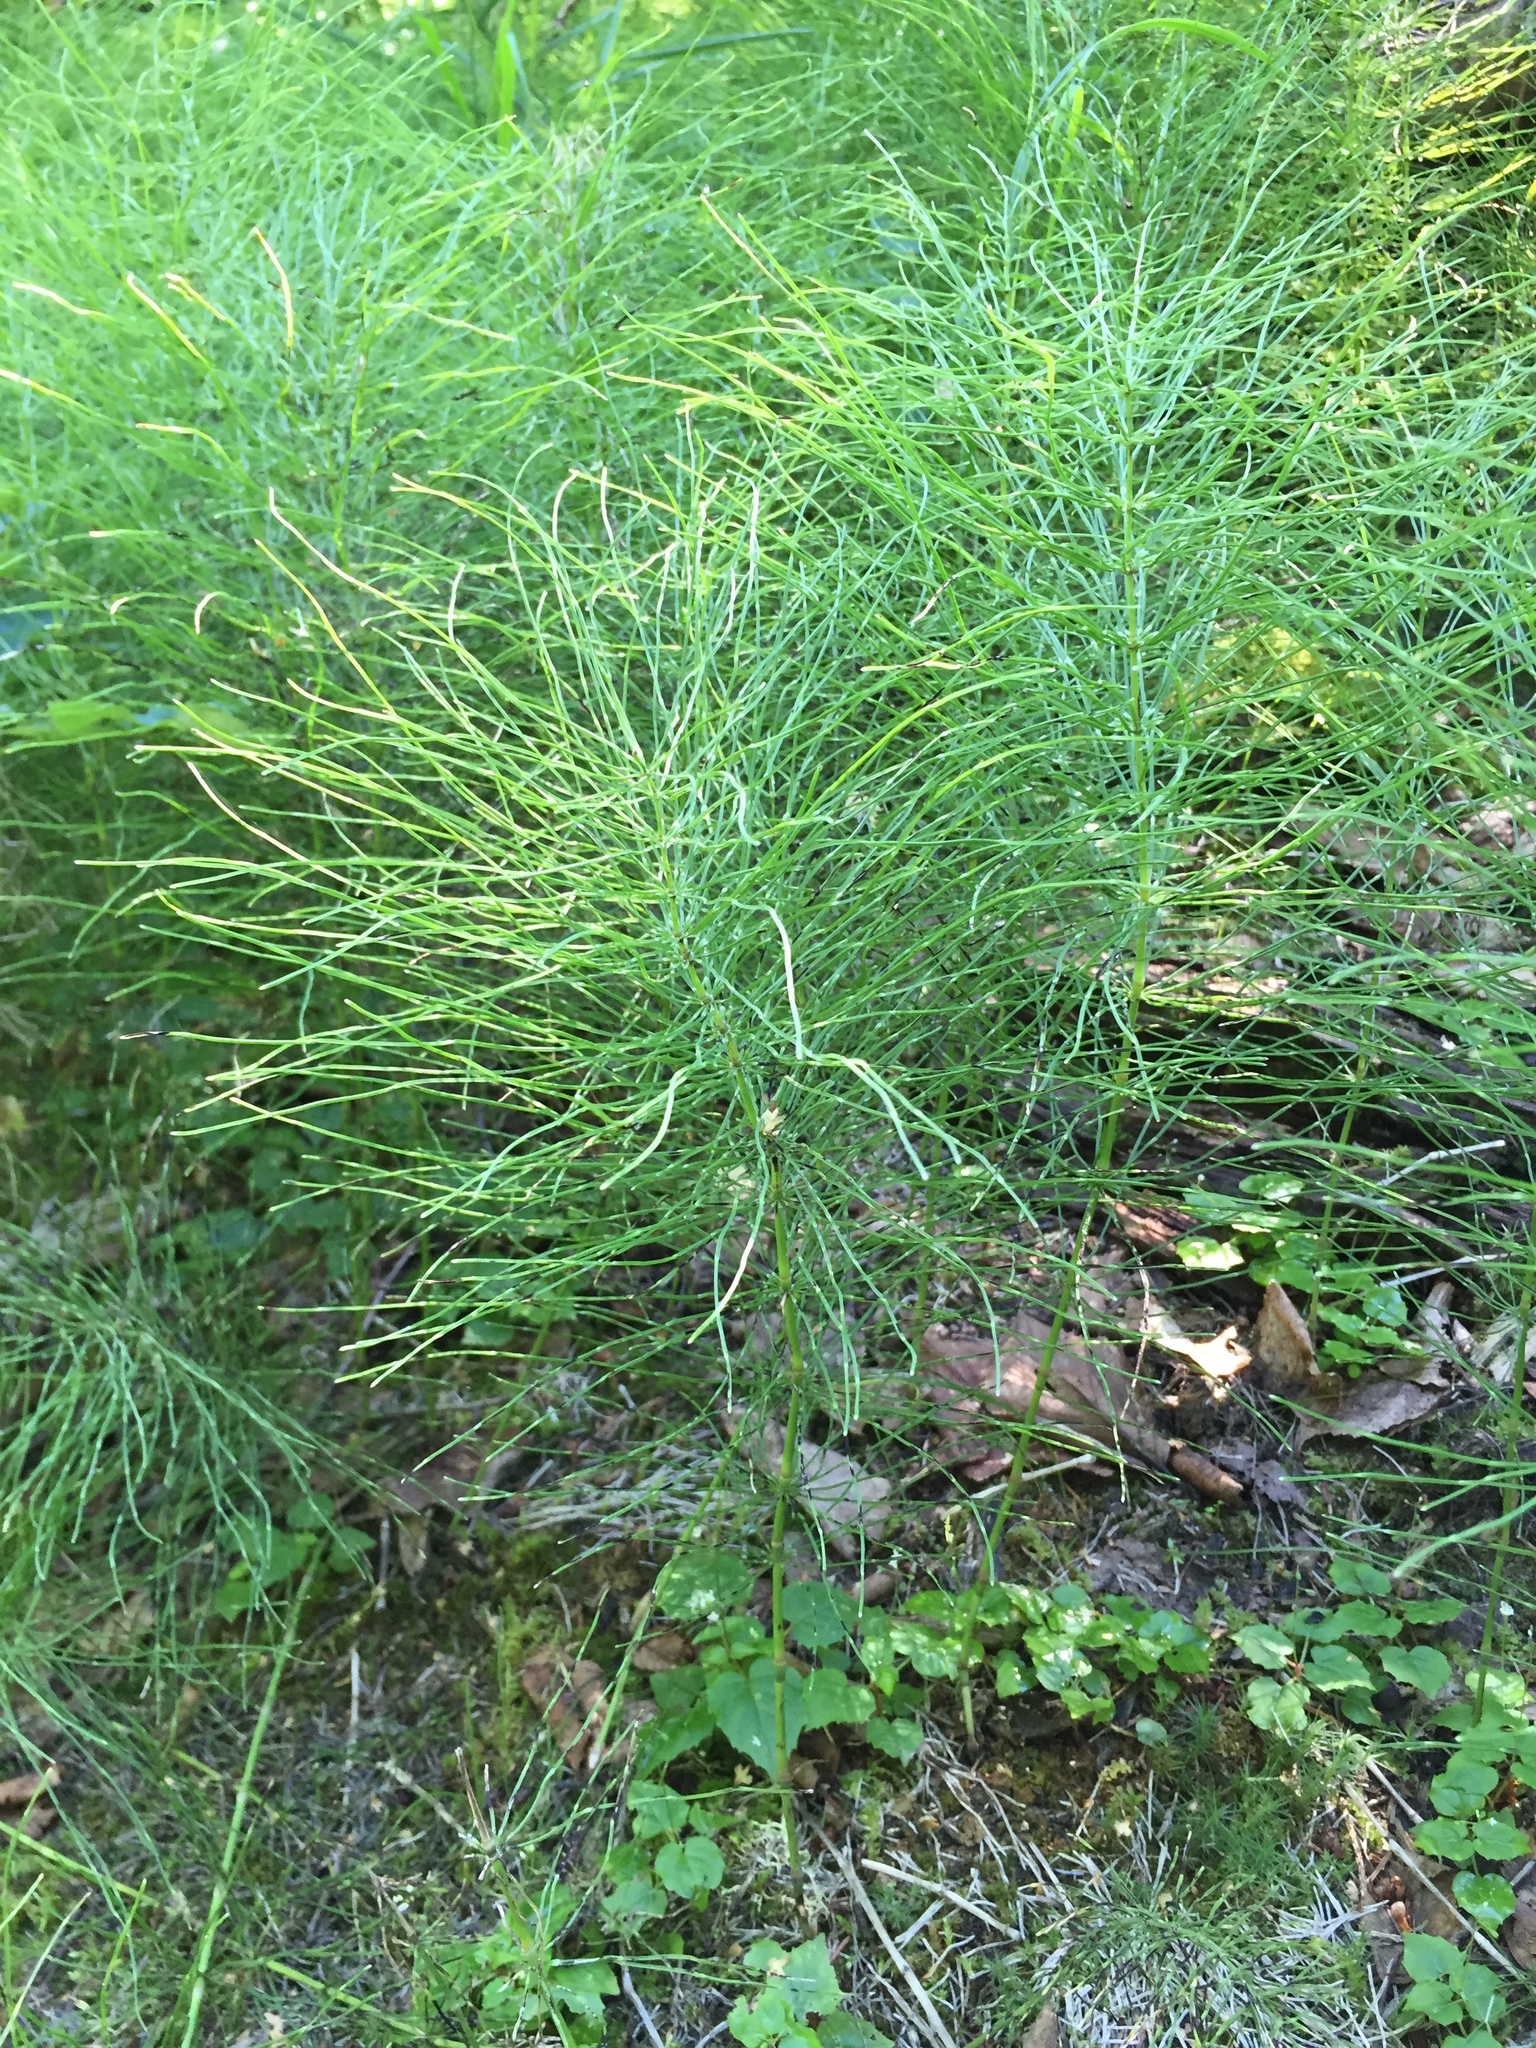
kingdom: Plantae
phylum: Tracheophyta
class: Polypodiopsida
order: Equisetales
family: Equisetaceae
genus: Equisetum
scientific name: Equisetum pratense
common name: Meadow horsetail
